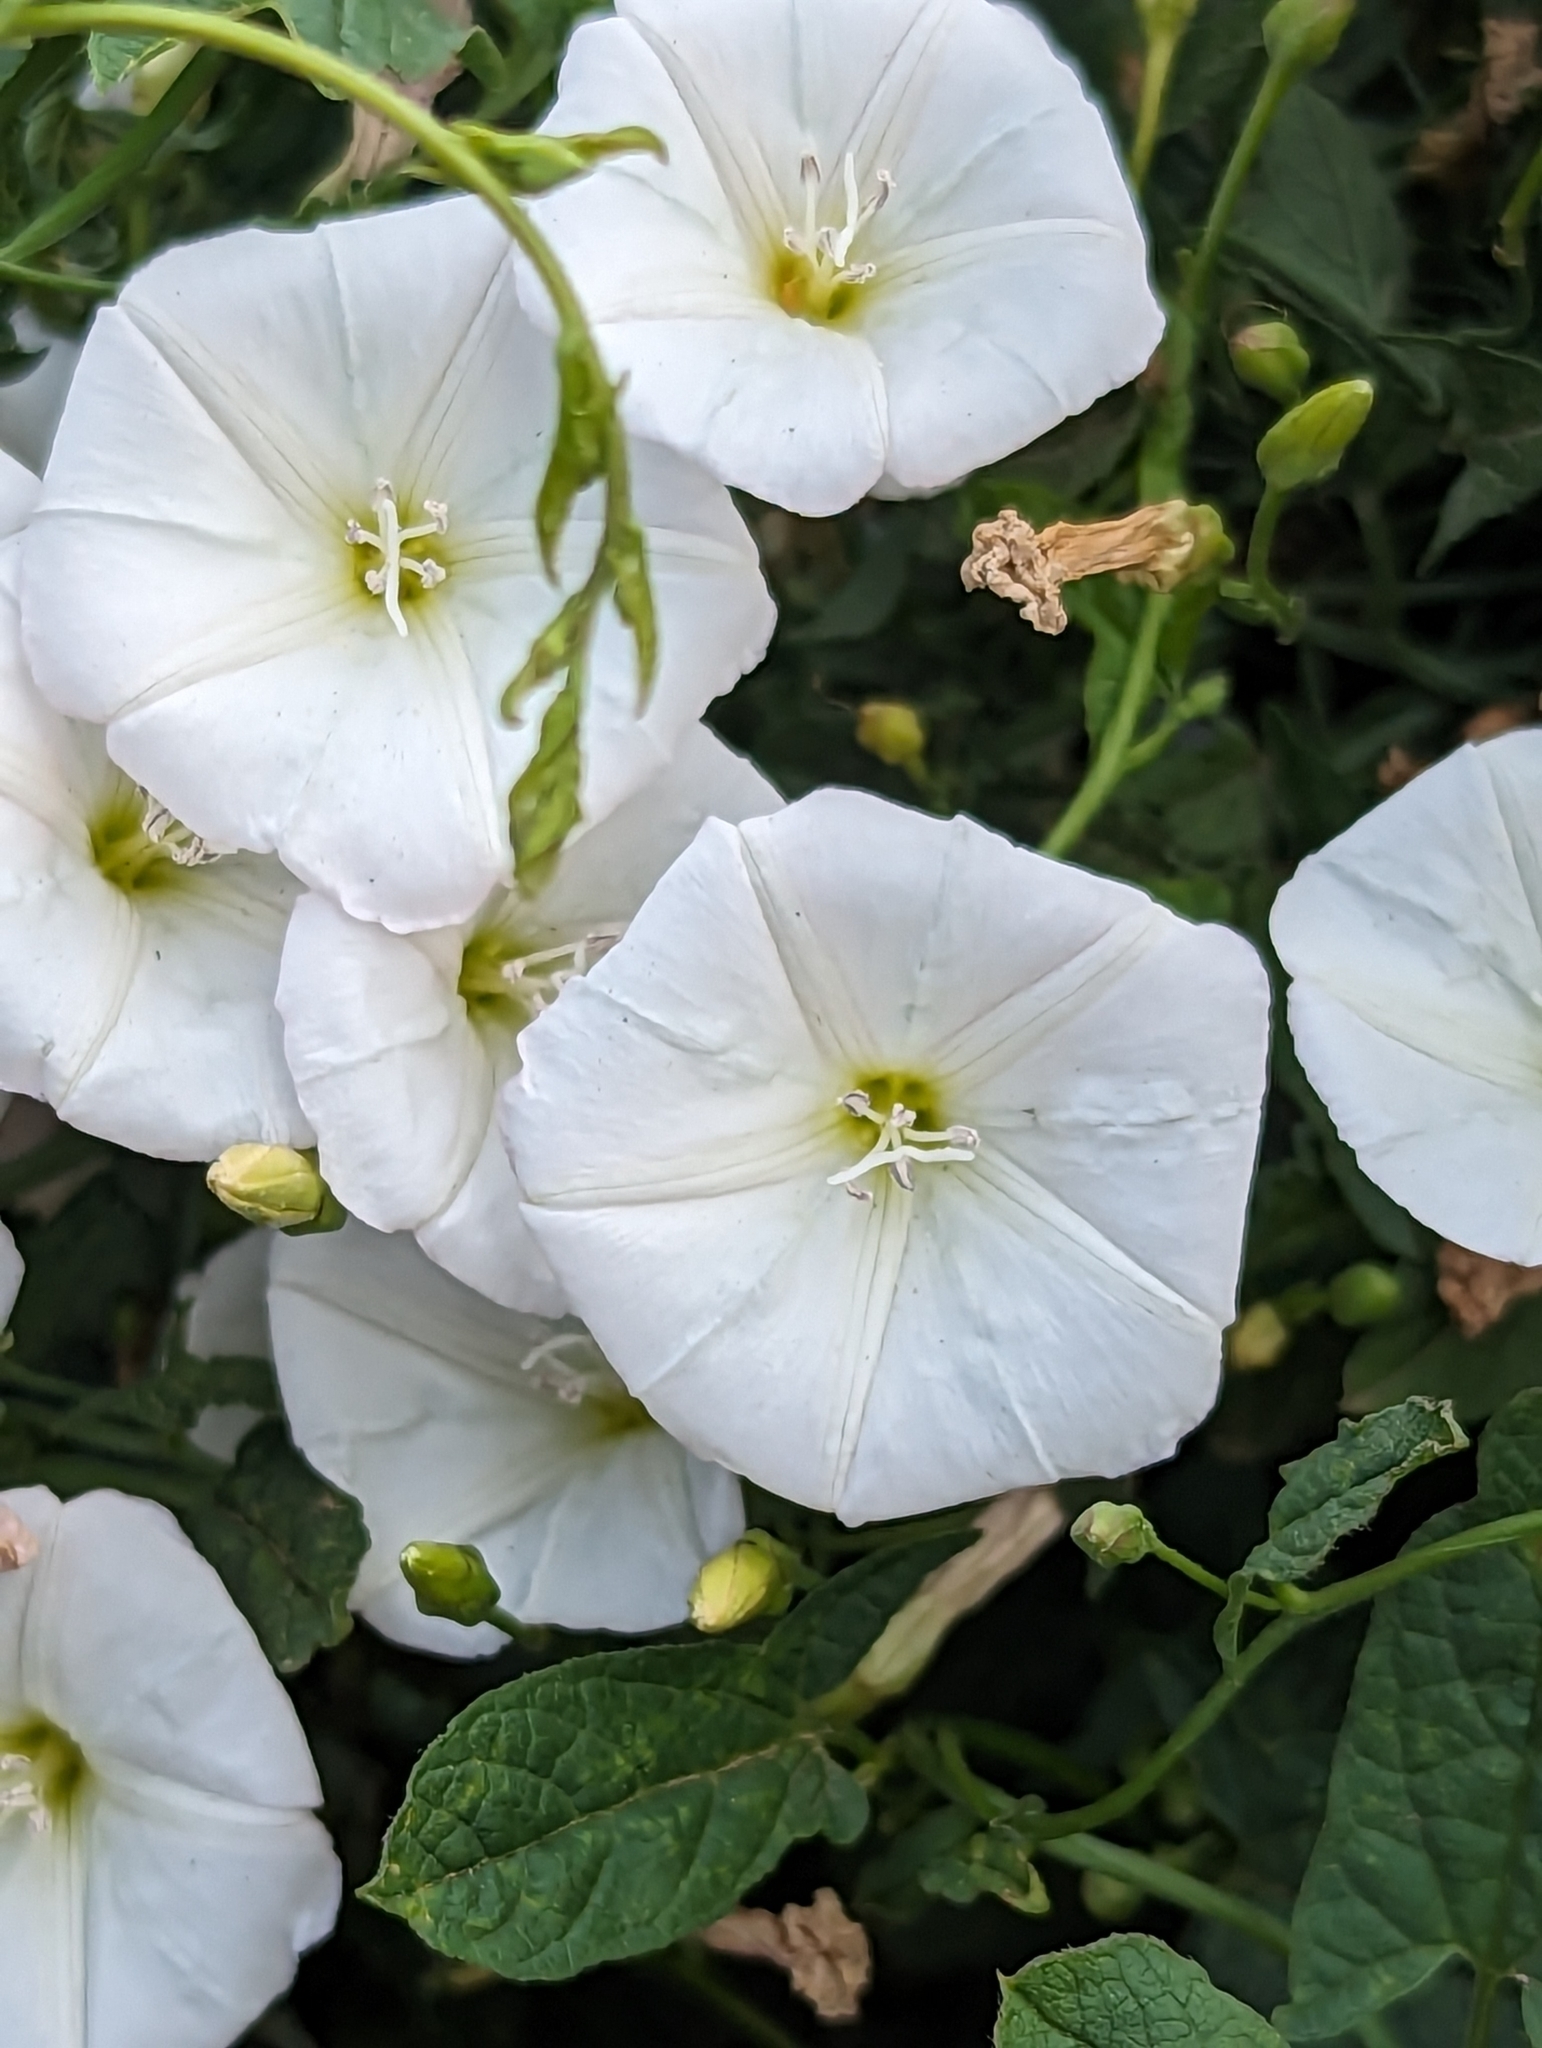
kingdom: Plantae
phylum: Tracheophyta
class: Magnoliopsida
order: Solanales
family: Convolvulaceae
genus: Convolvulus
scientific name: Convolvulus arvensis
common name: Field bindweed
